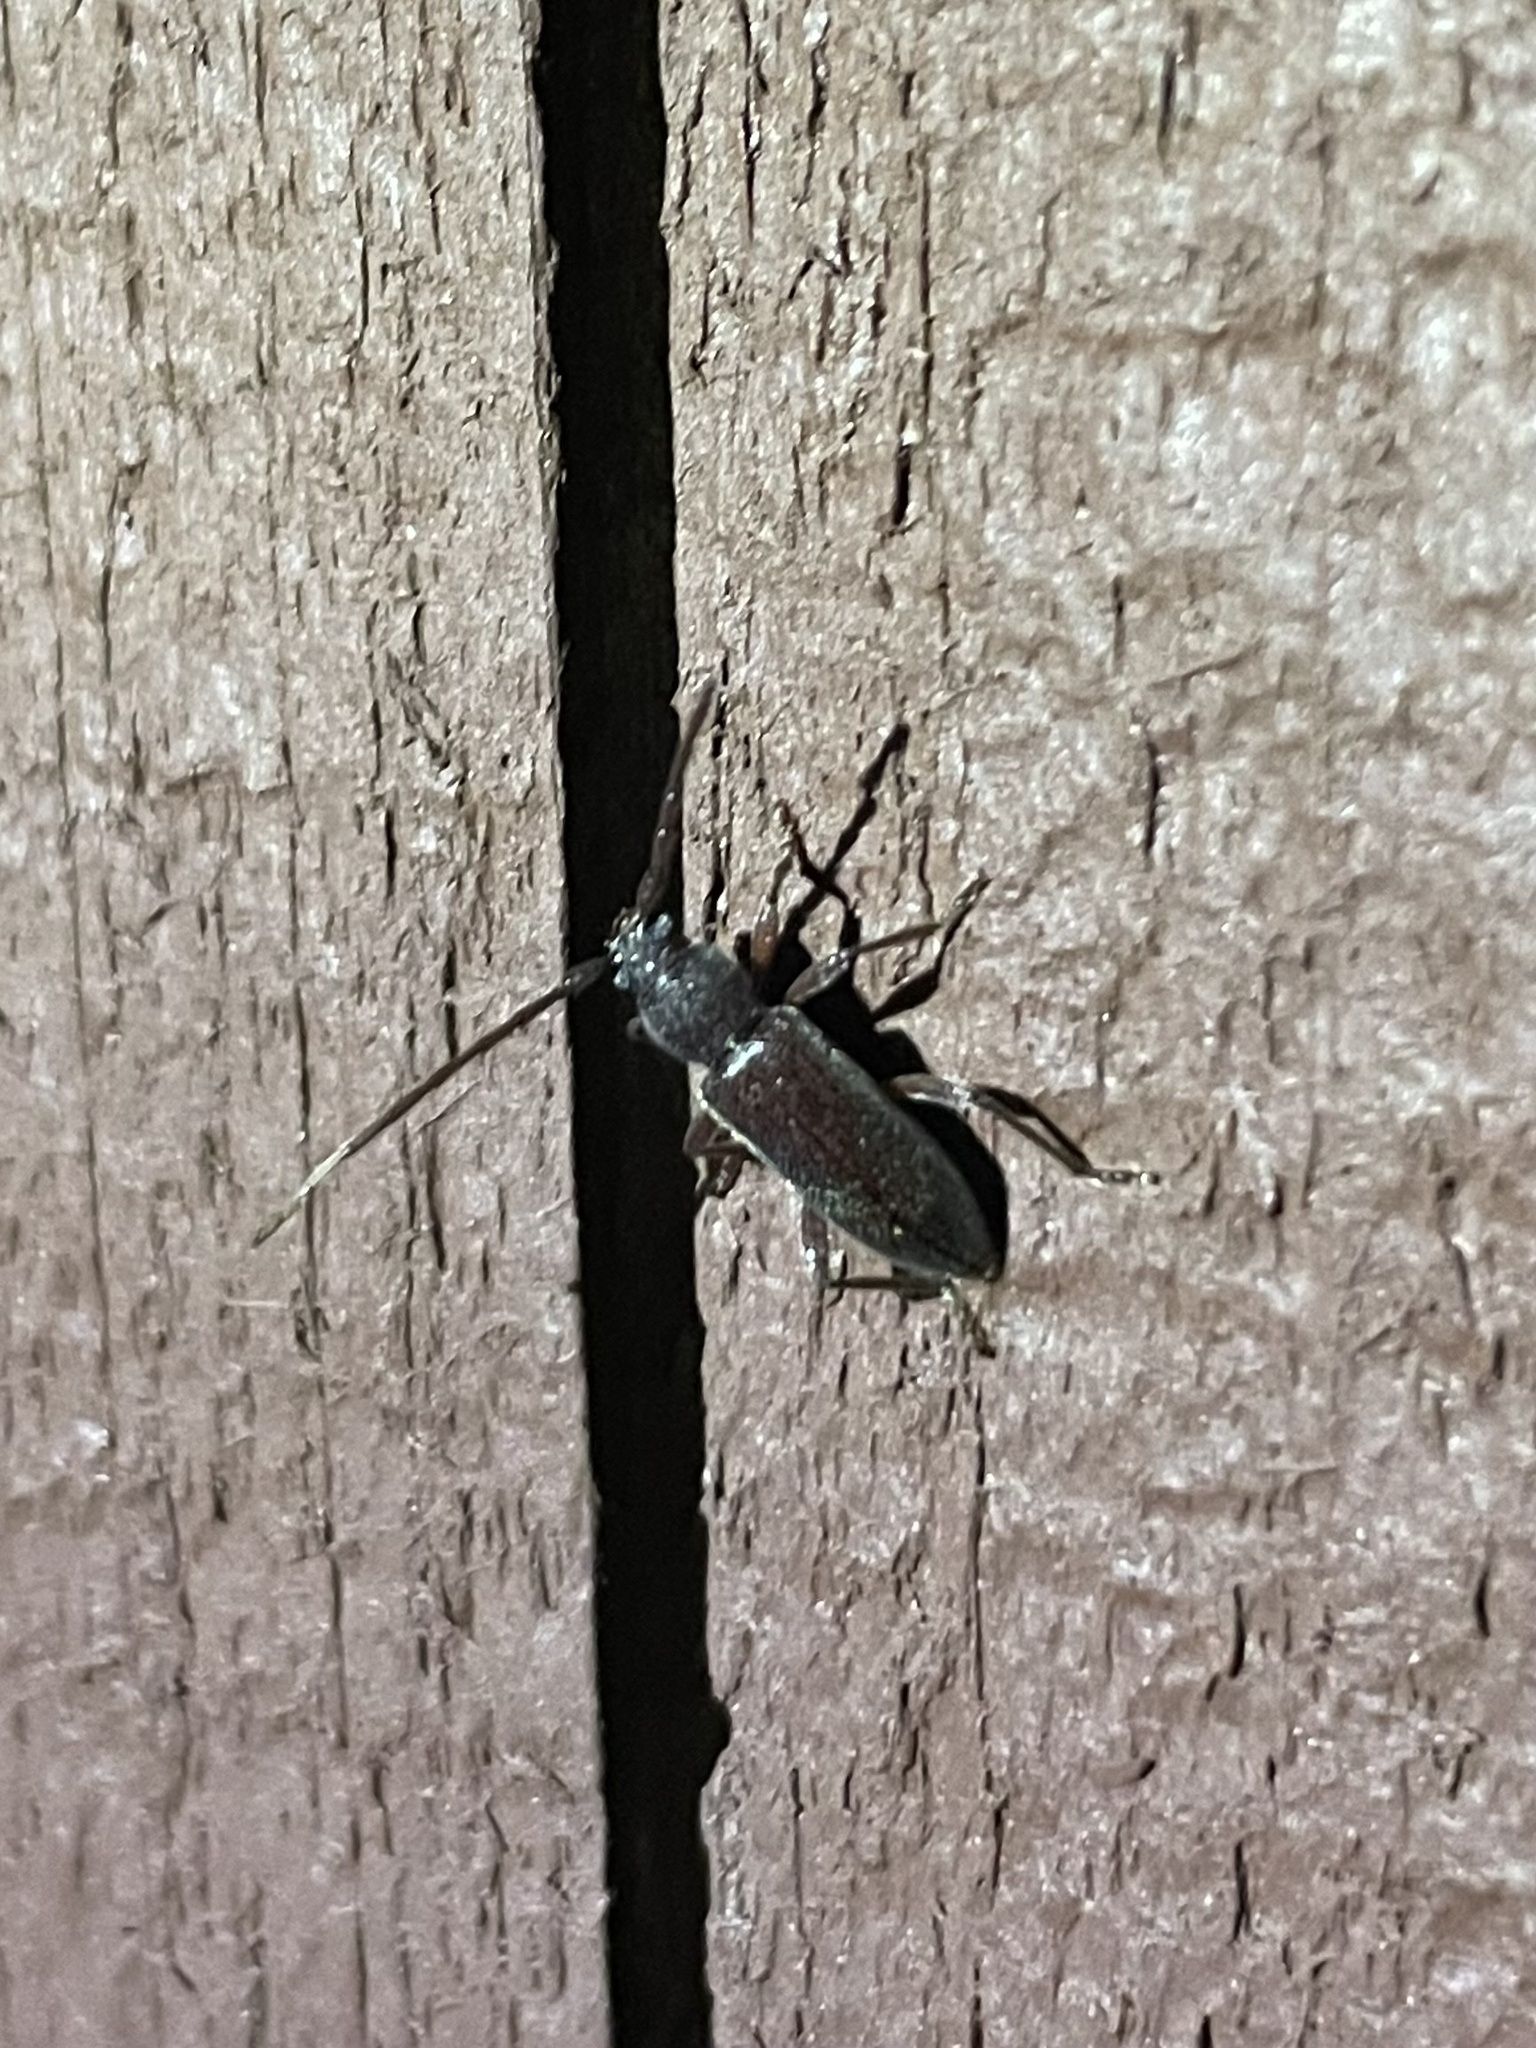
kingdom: Animalia
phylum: Arthropoda
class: Insecta
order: Coleoptera
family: Cerambycidae
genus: Anelaphus
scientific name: Anelaphus moestus
